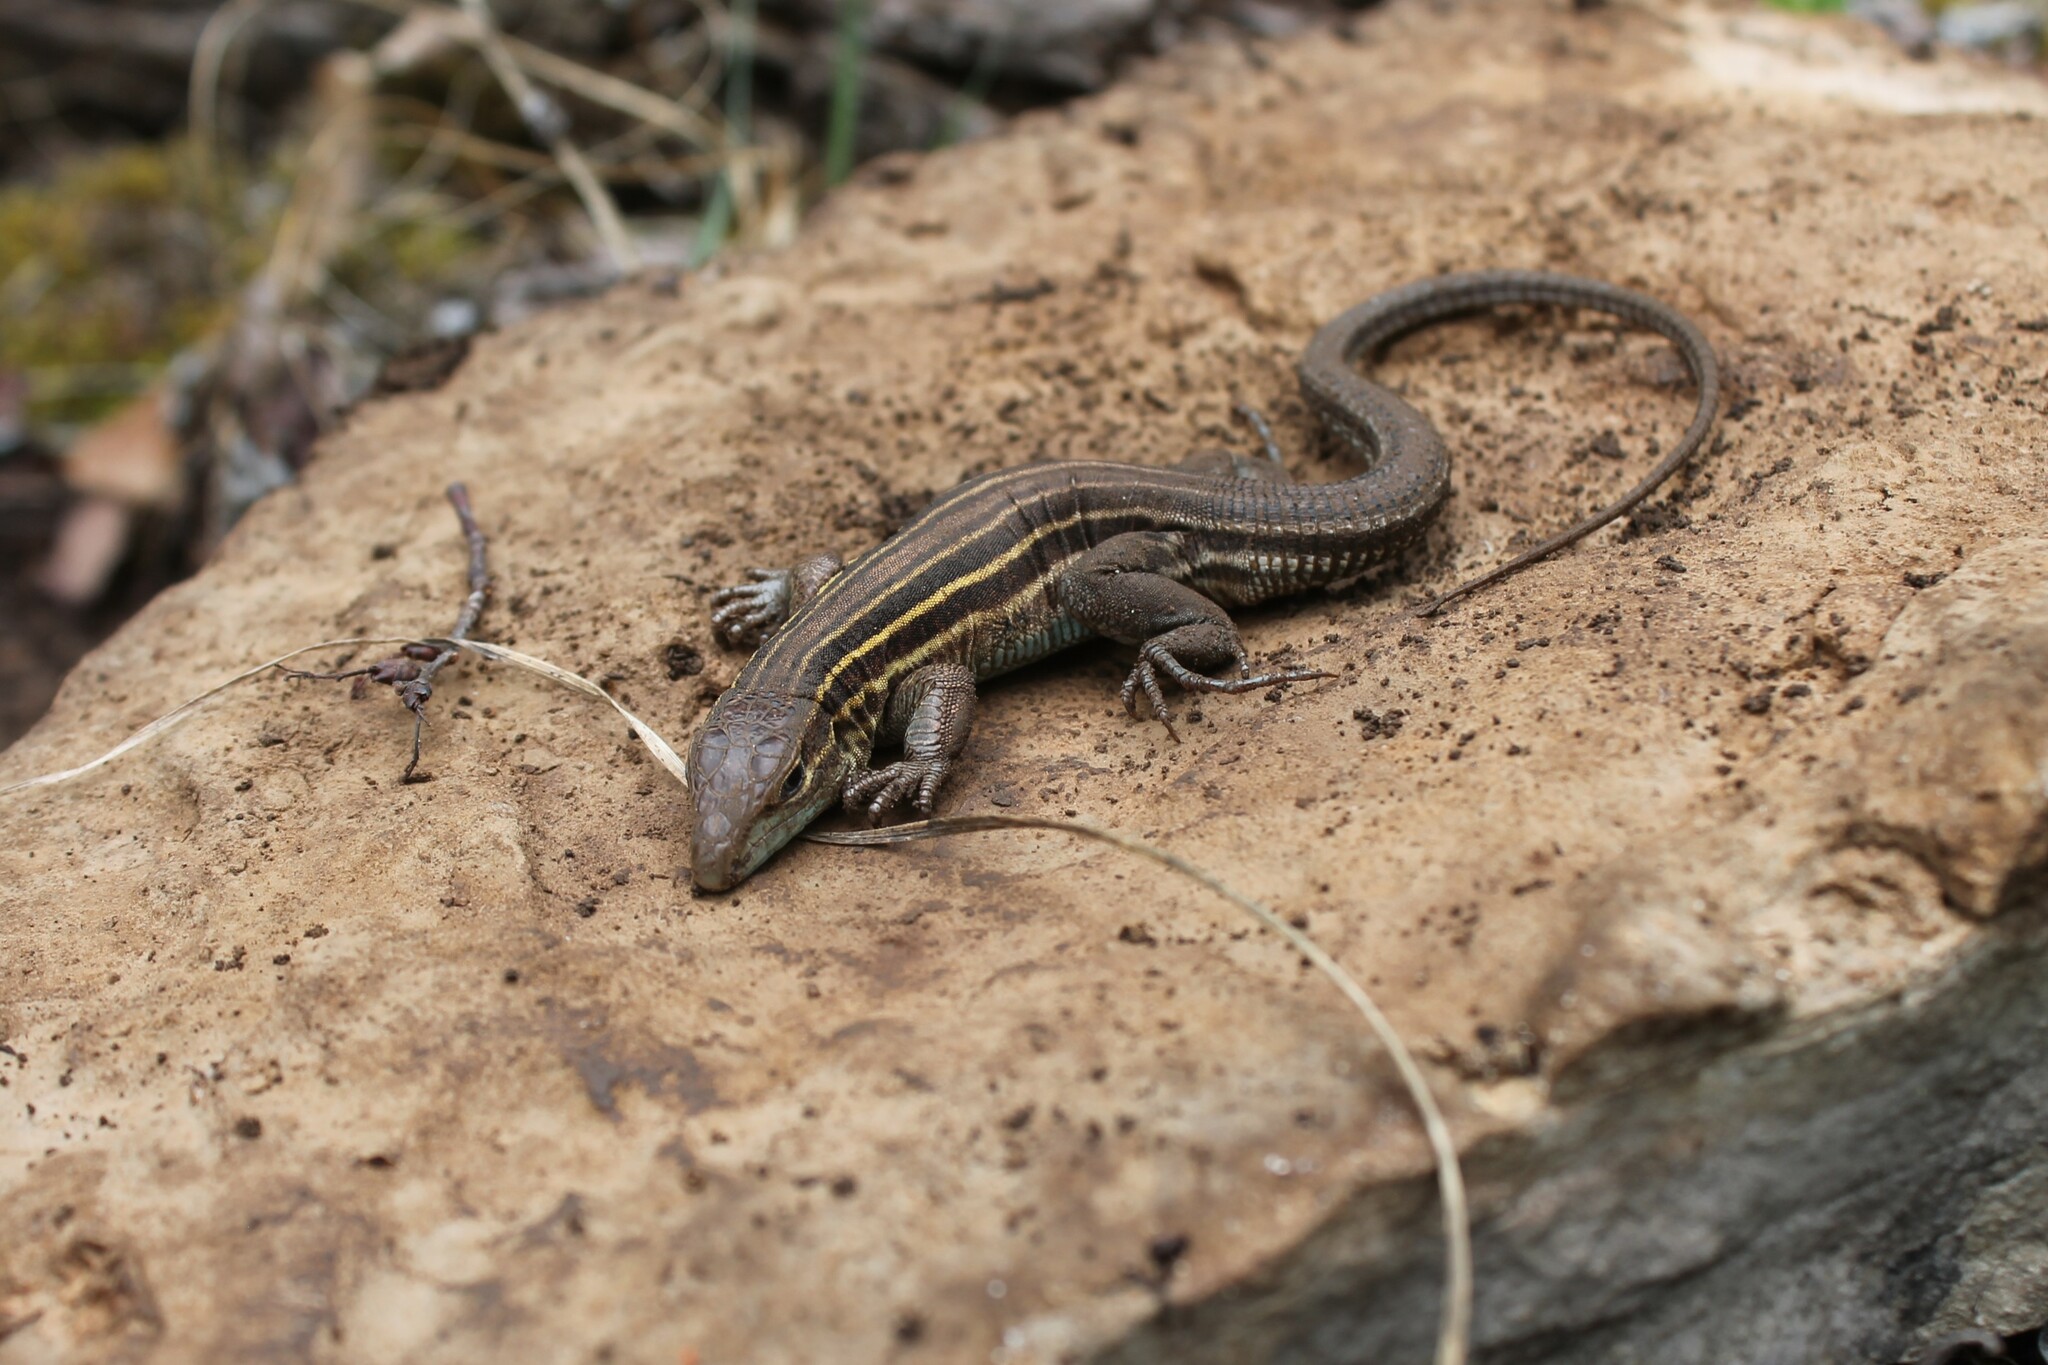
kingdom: Animalia
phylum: Chordata
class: Squamata
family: Teiidae
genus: Aspidoscelis
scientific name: Aspidoscelis sexlineatus
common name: Six-lined racerunner
